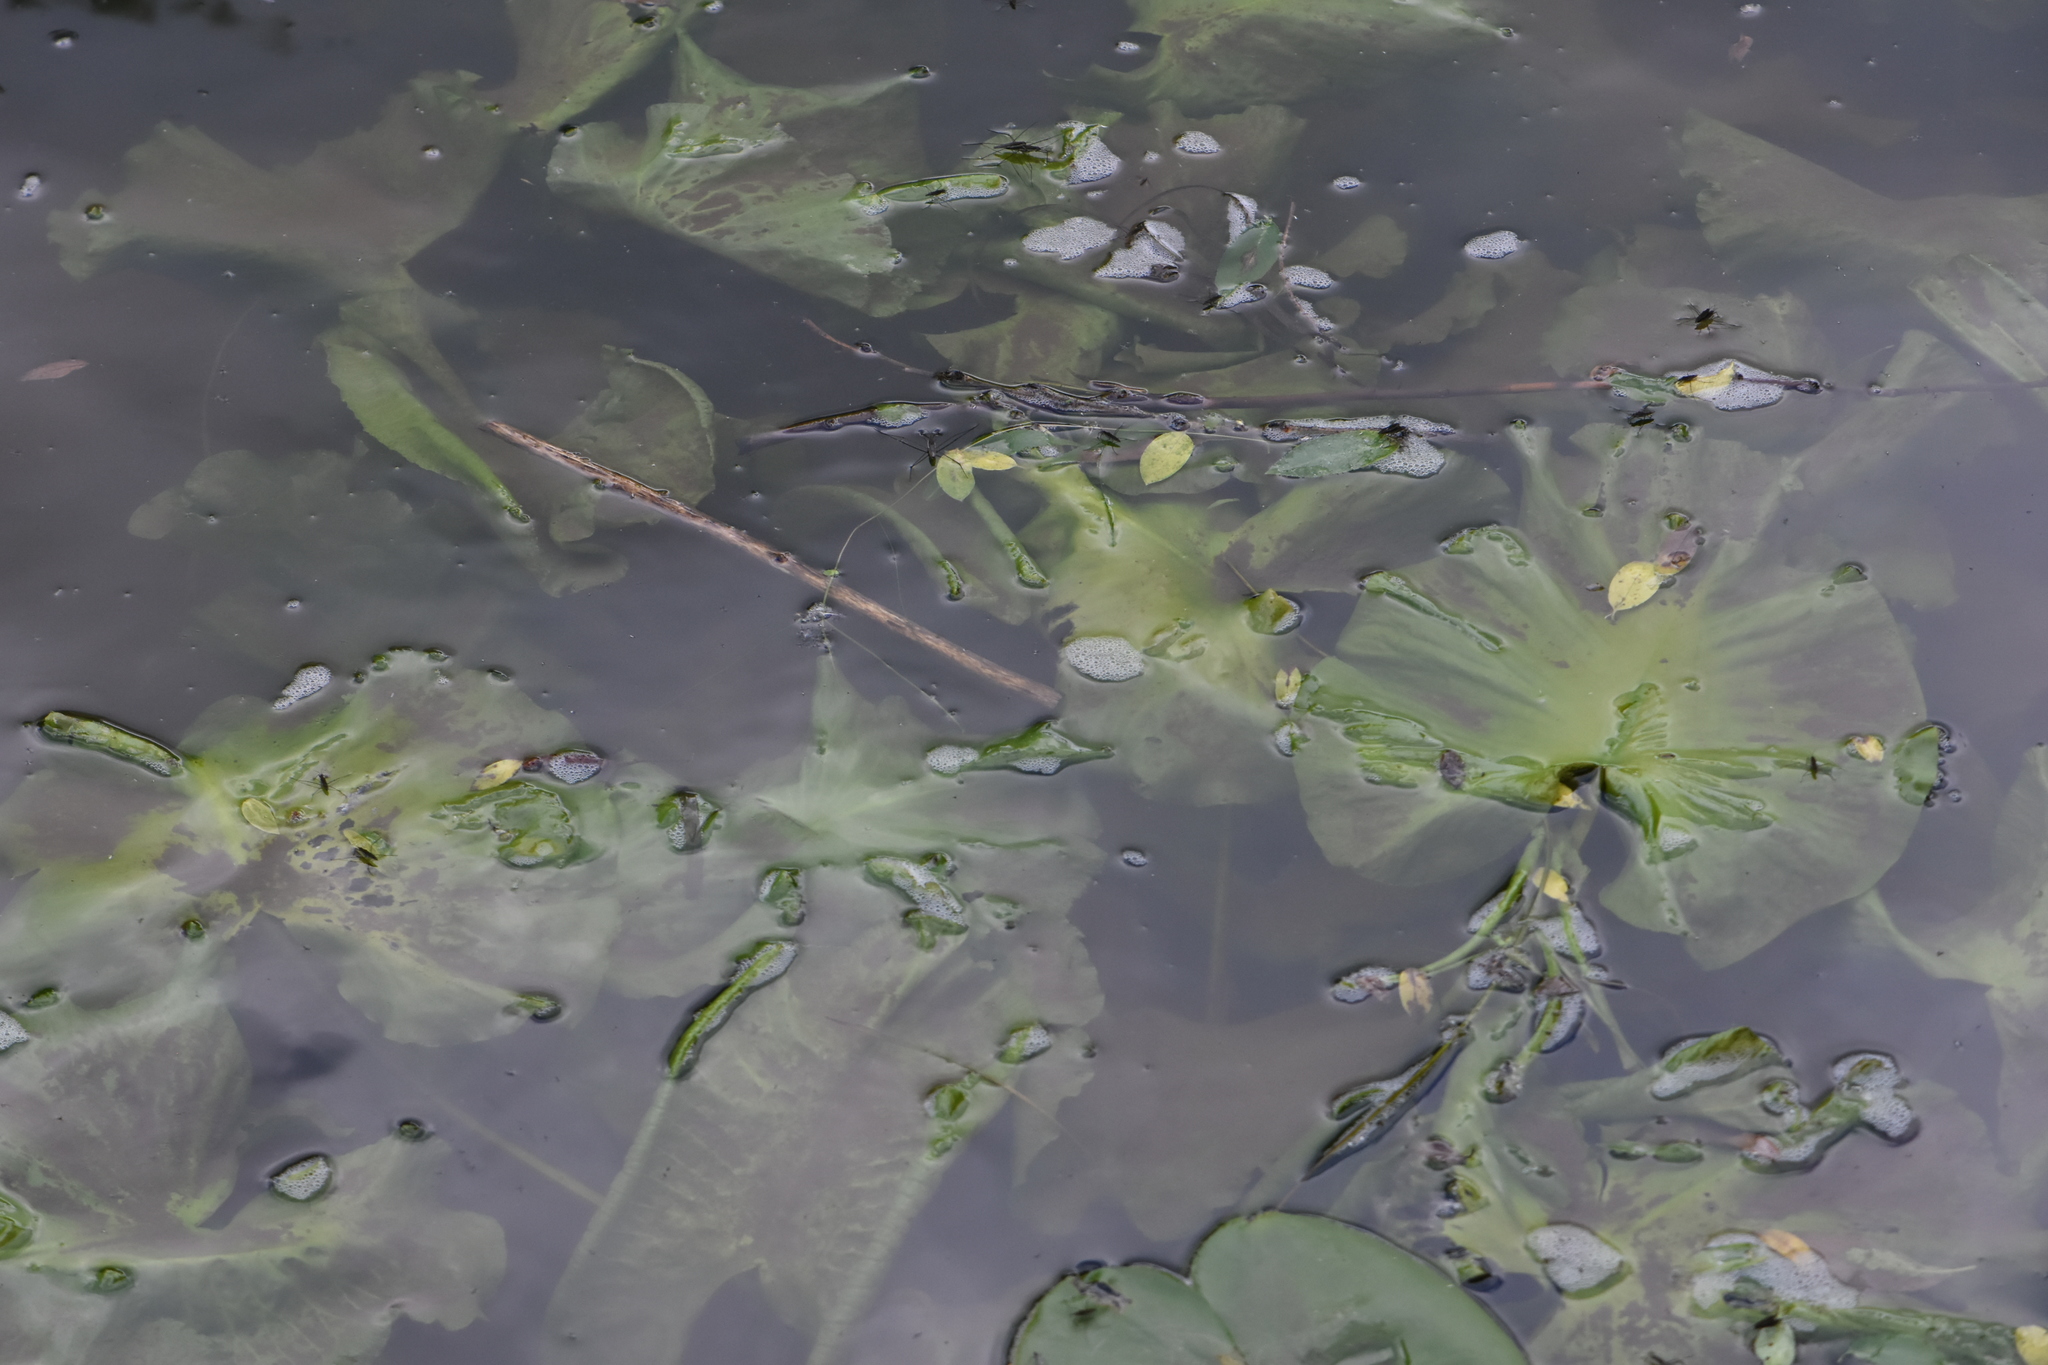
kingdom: Plantae
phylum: Tracheophyta
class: Magnoliopsida
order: Nymphaeales
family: Nymphaeaceae
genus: Nuphar
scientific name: Nuphar lutea
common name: Yellow water-lily
